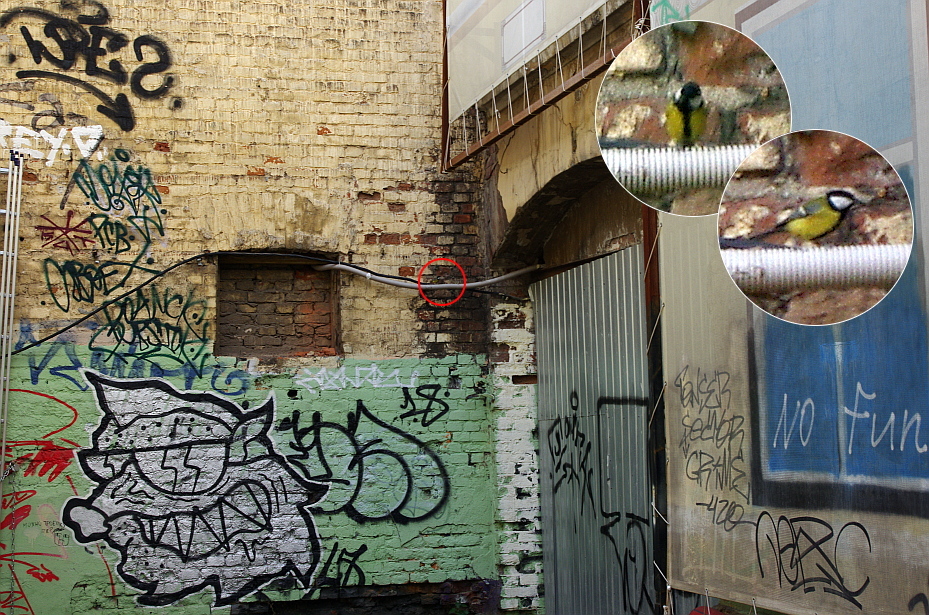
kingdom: Animalia
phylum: Chordata
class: Aves
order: Passeriformes
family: Paridae
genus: Parus
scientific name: Parus major
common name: Great tit
